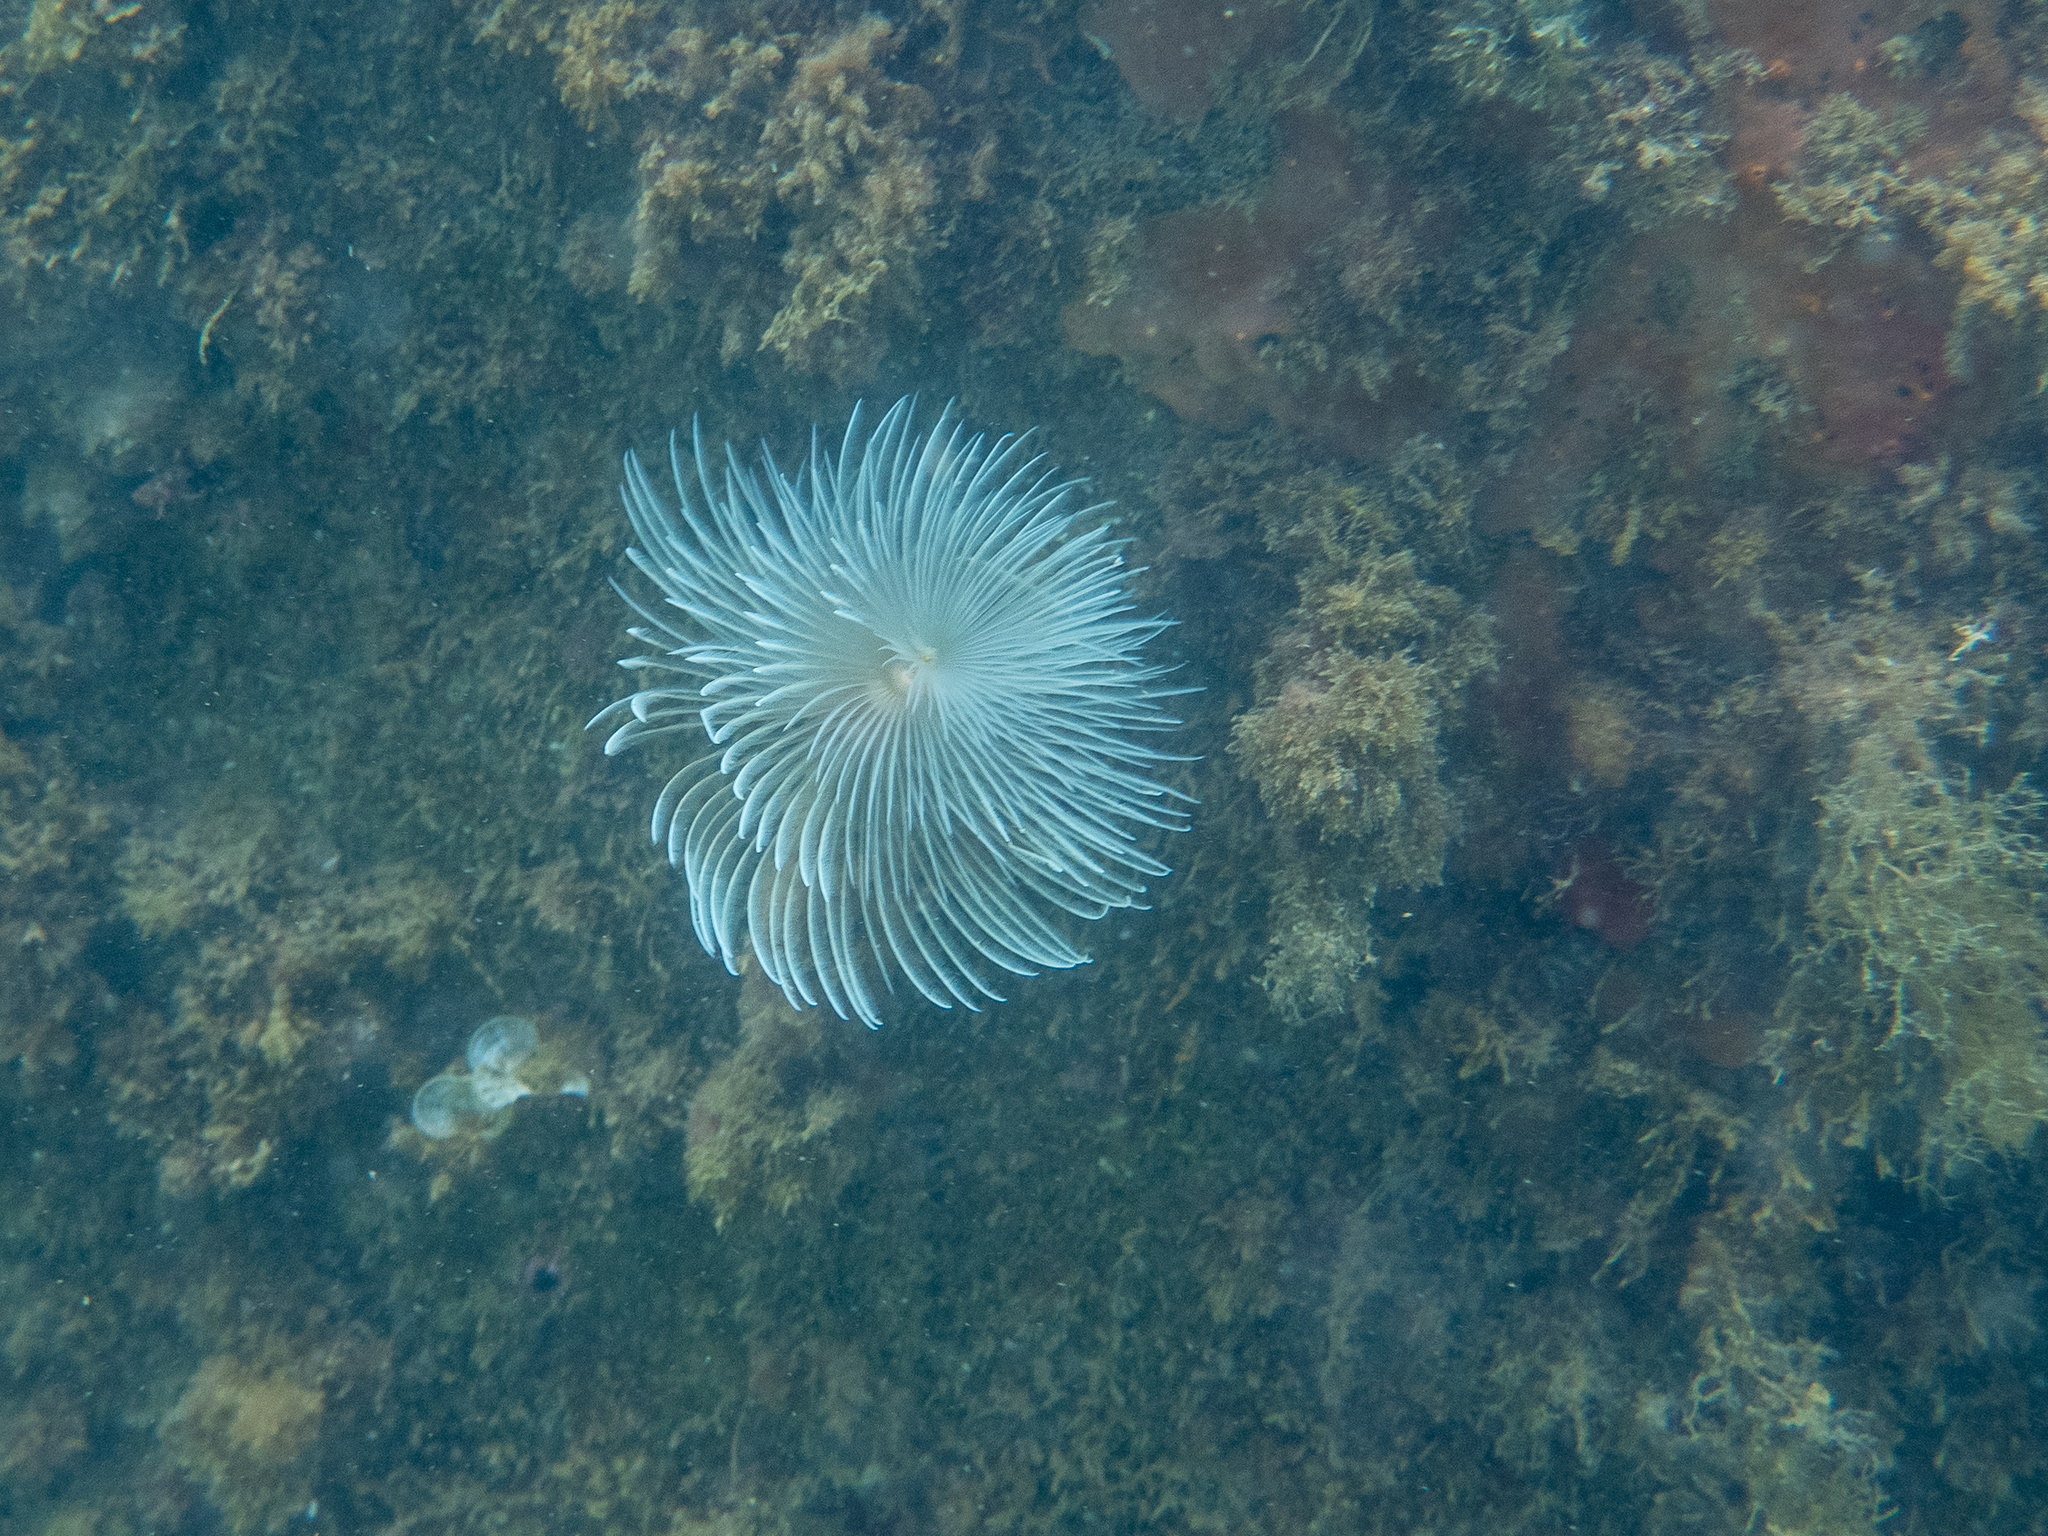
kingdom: Animalia
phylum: Annelida
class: Polychaeta
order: Sabellida
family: Sabellidae
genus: Sabella
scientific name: Sabella spallanzanii
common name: Feather duster worm
